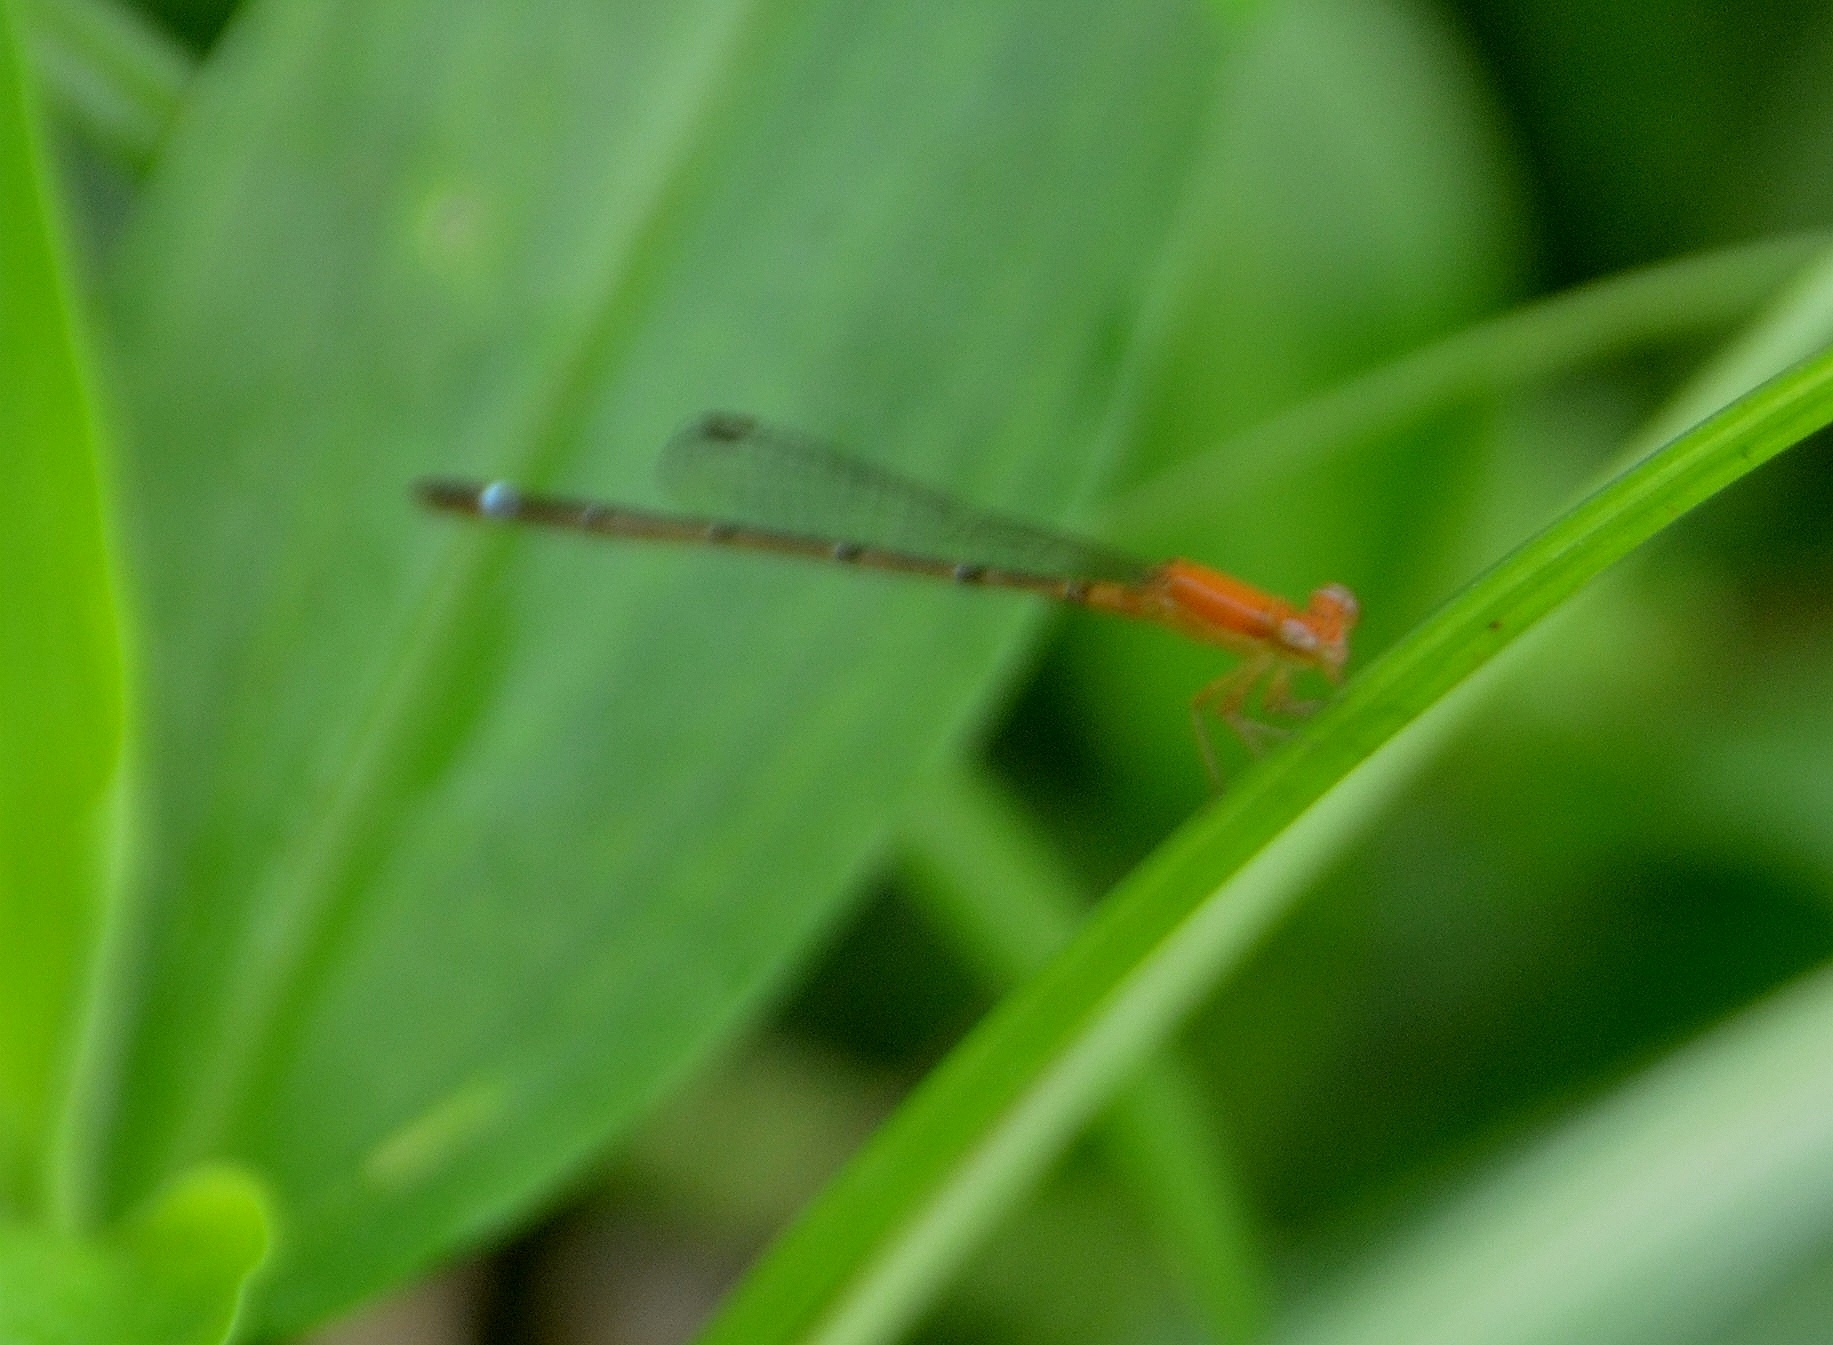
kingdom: Animalia
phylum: Arthropoda
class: Insecta
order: Odonata
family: Coenagrionidae
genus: Mortonagrion
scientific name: Mortonagrion varralli
